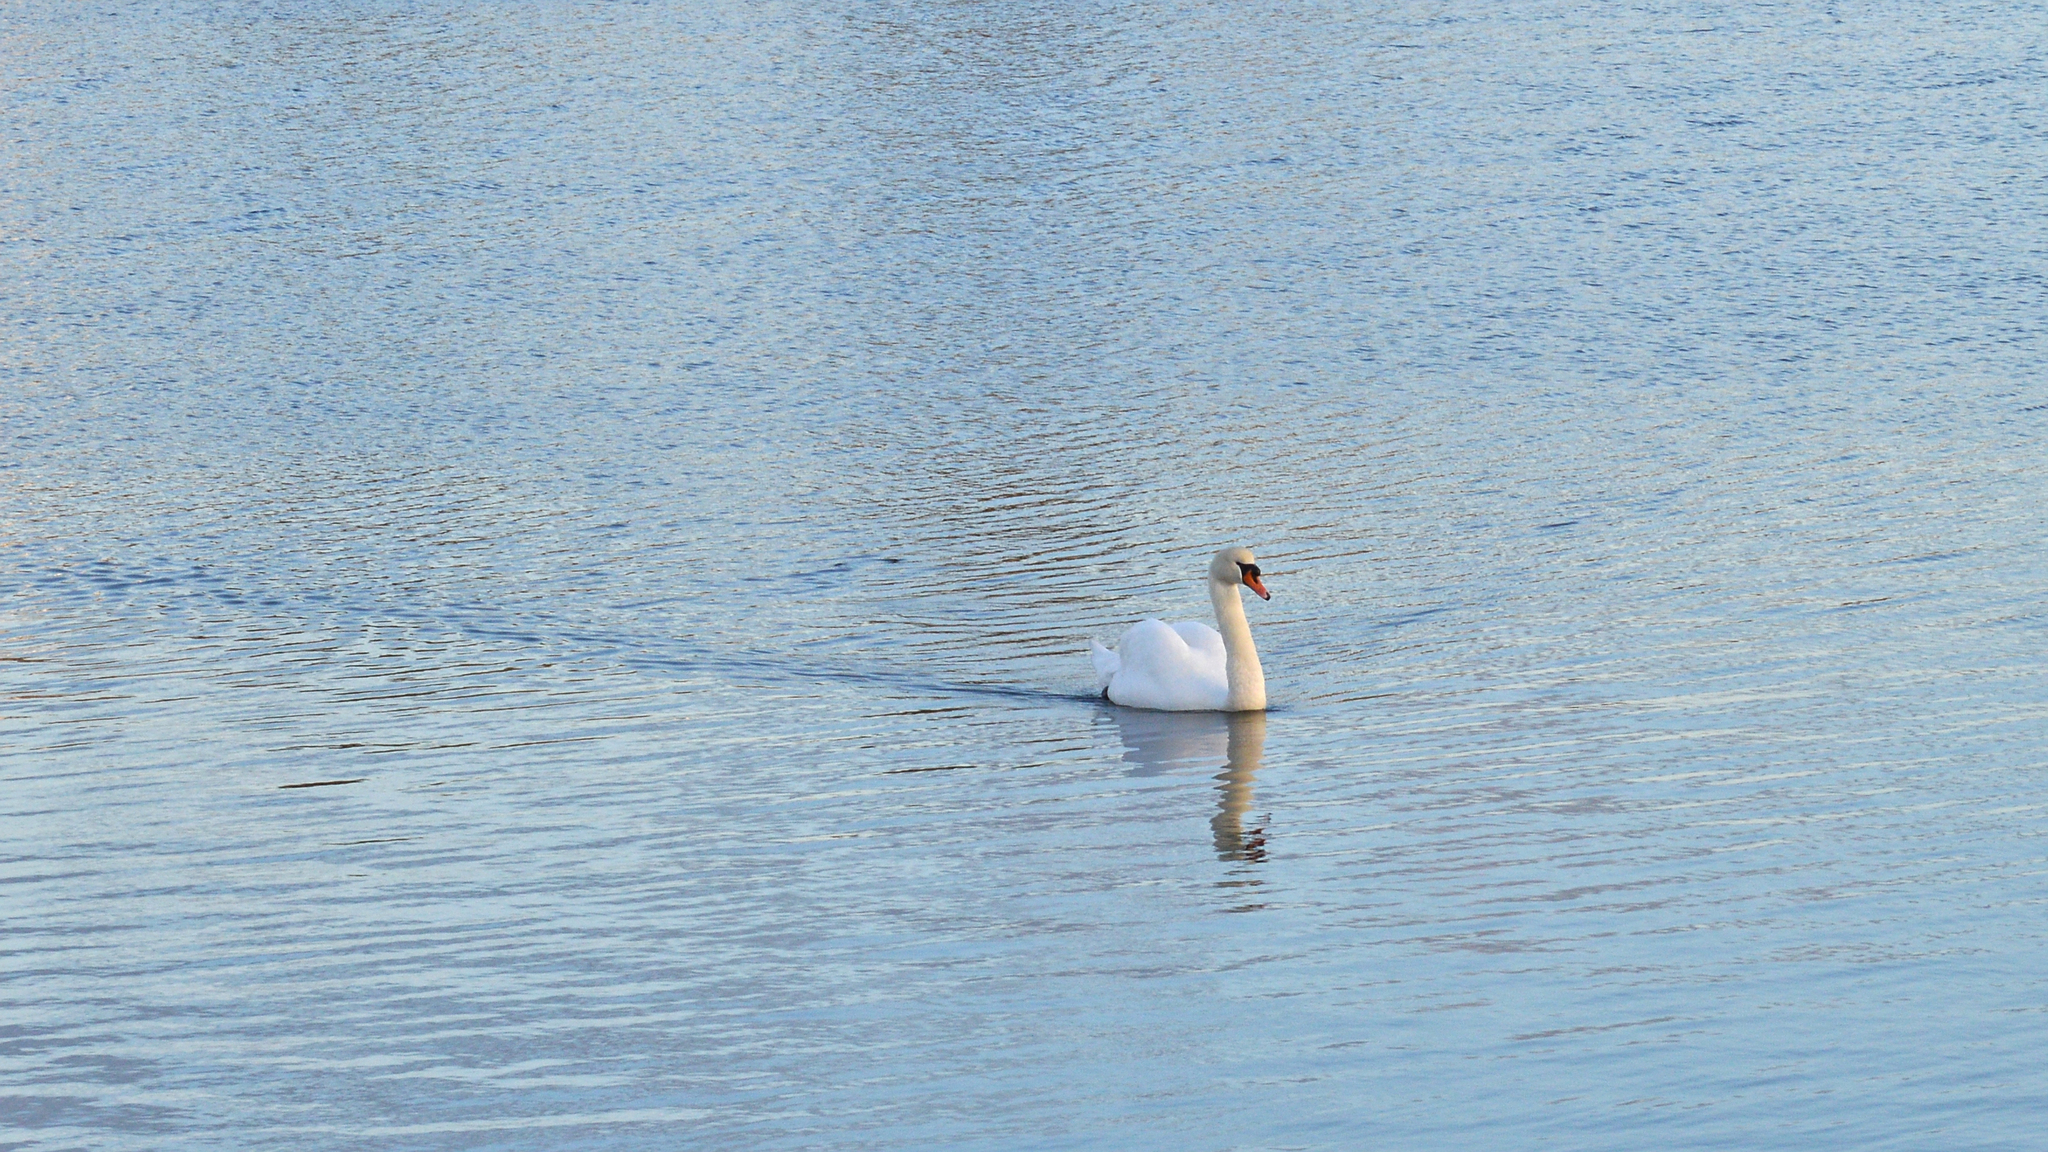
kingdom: Animalia
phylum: Chordata
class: Aves
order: Anseriformes
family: Anatidae
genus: Cygnus
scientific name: Cygnus olor
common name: Mute swan
